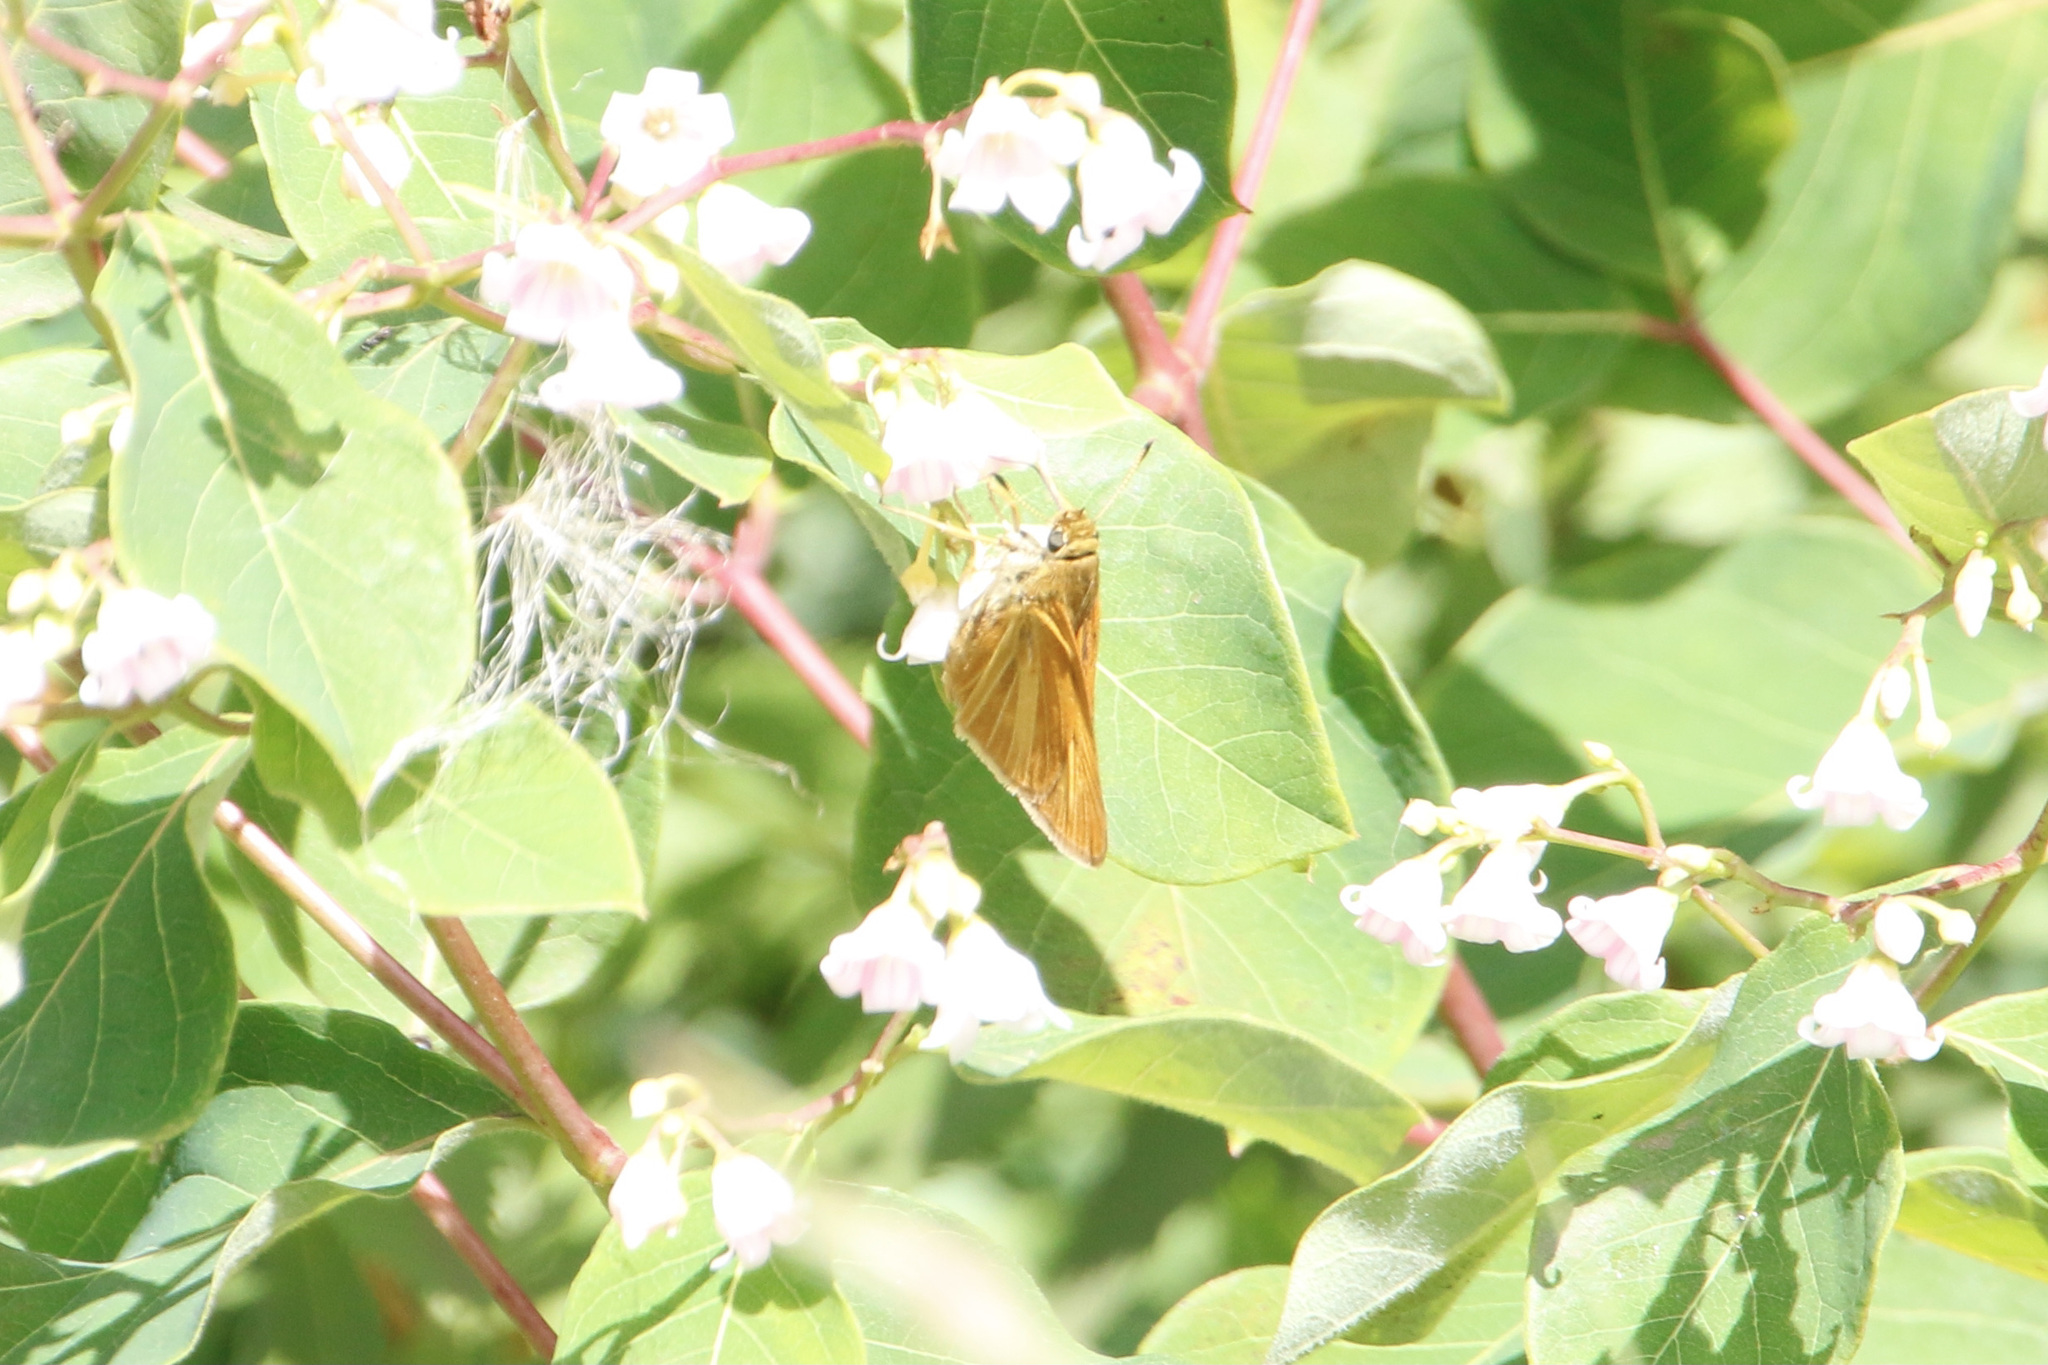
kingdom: Animalia
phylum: Arthropoda
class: Insecta
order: Lepidoptera
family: Hesperiidae
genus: Euphyes
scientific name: Euphyes dion
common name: Dion skipper
